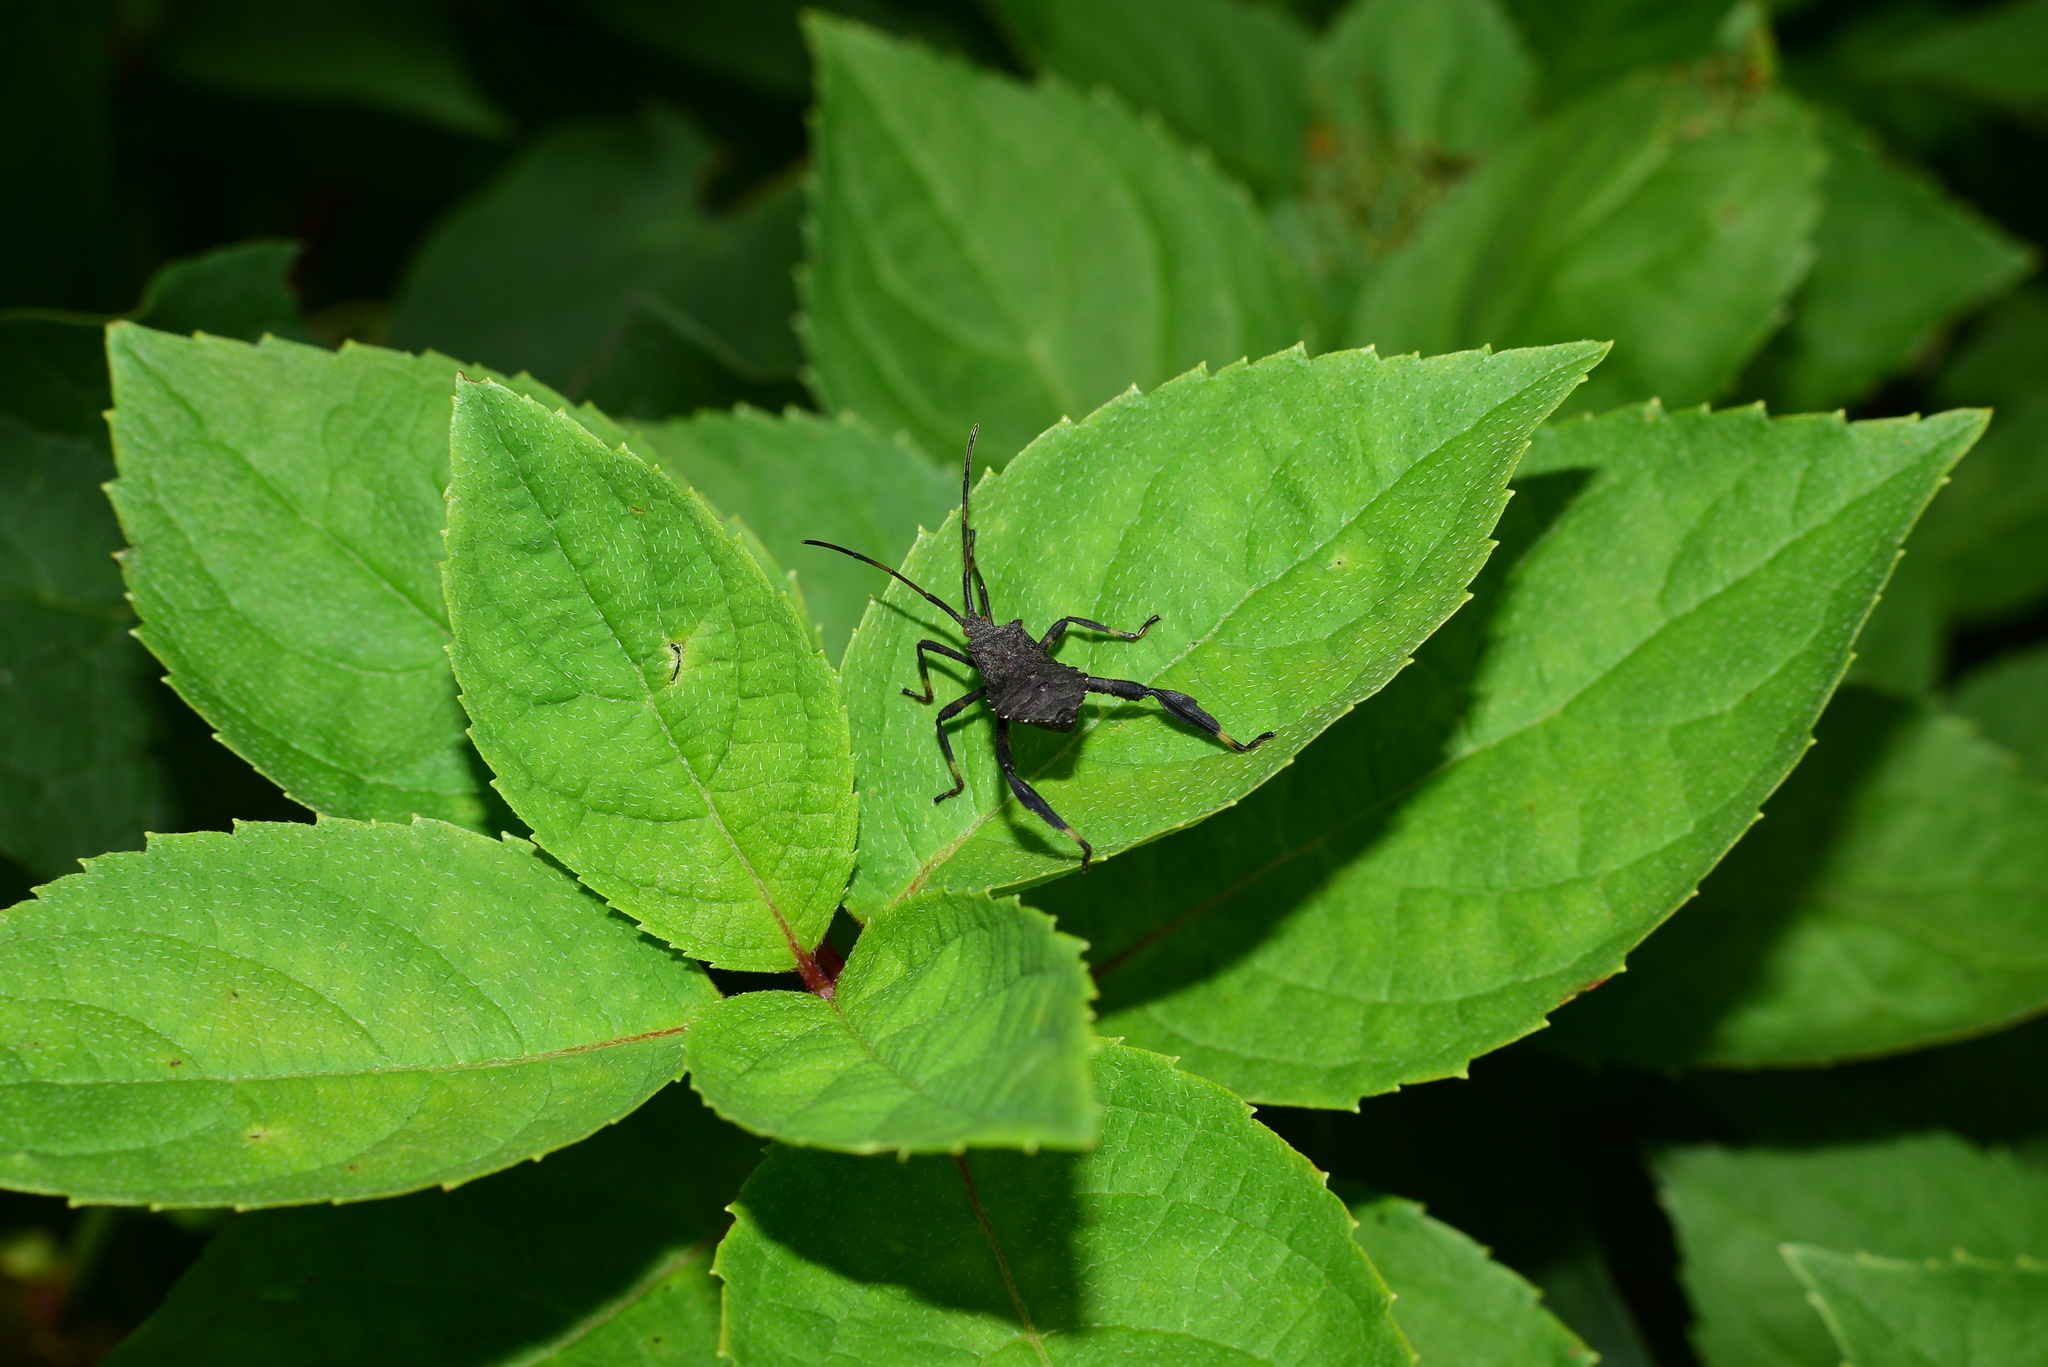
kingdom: Animalia
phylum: Arthropoda
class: Insecta
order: Hemiptera
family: Coreidae
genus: Acanthocephala
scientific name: Acanthocephala terminalis
